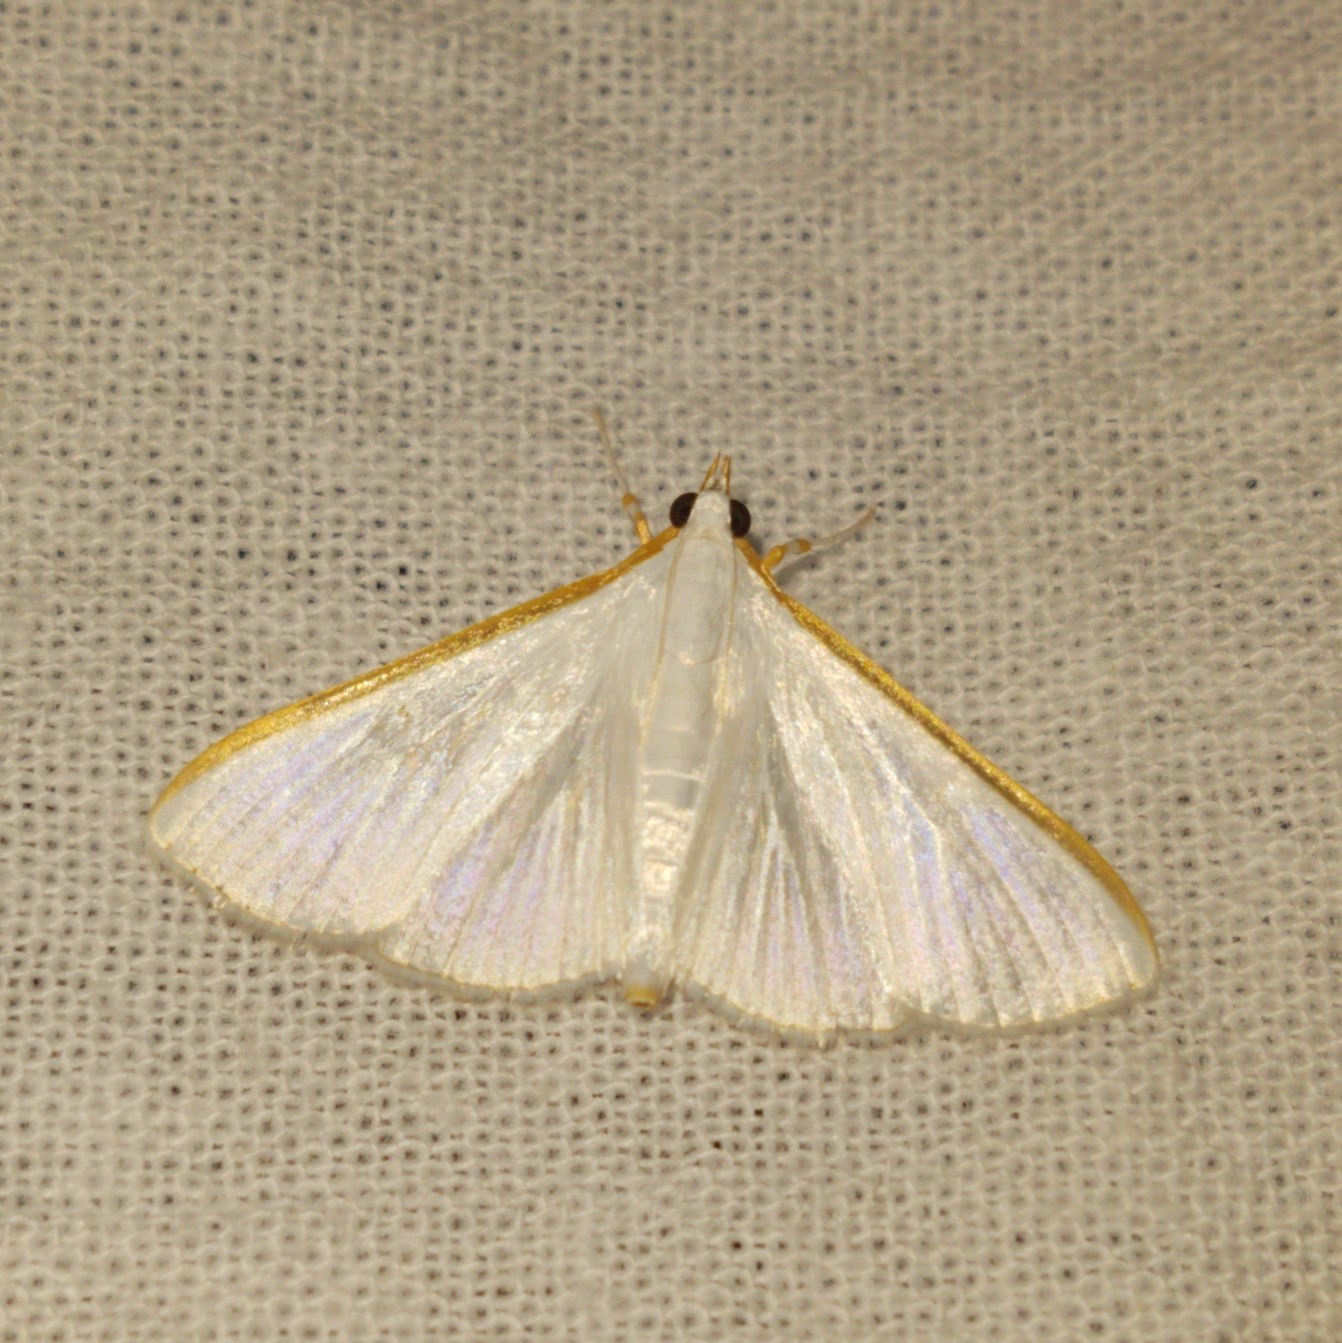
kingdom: Animalia
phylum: Arthropoda
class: Insecta
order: Lepidoptera
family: Crambidae
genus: Diaphania
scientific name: Diaphania costata
